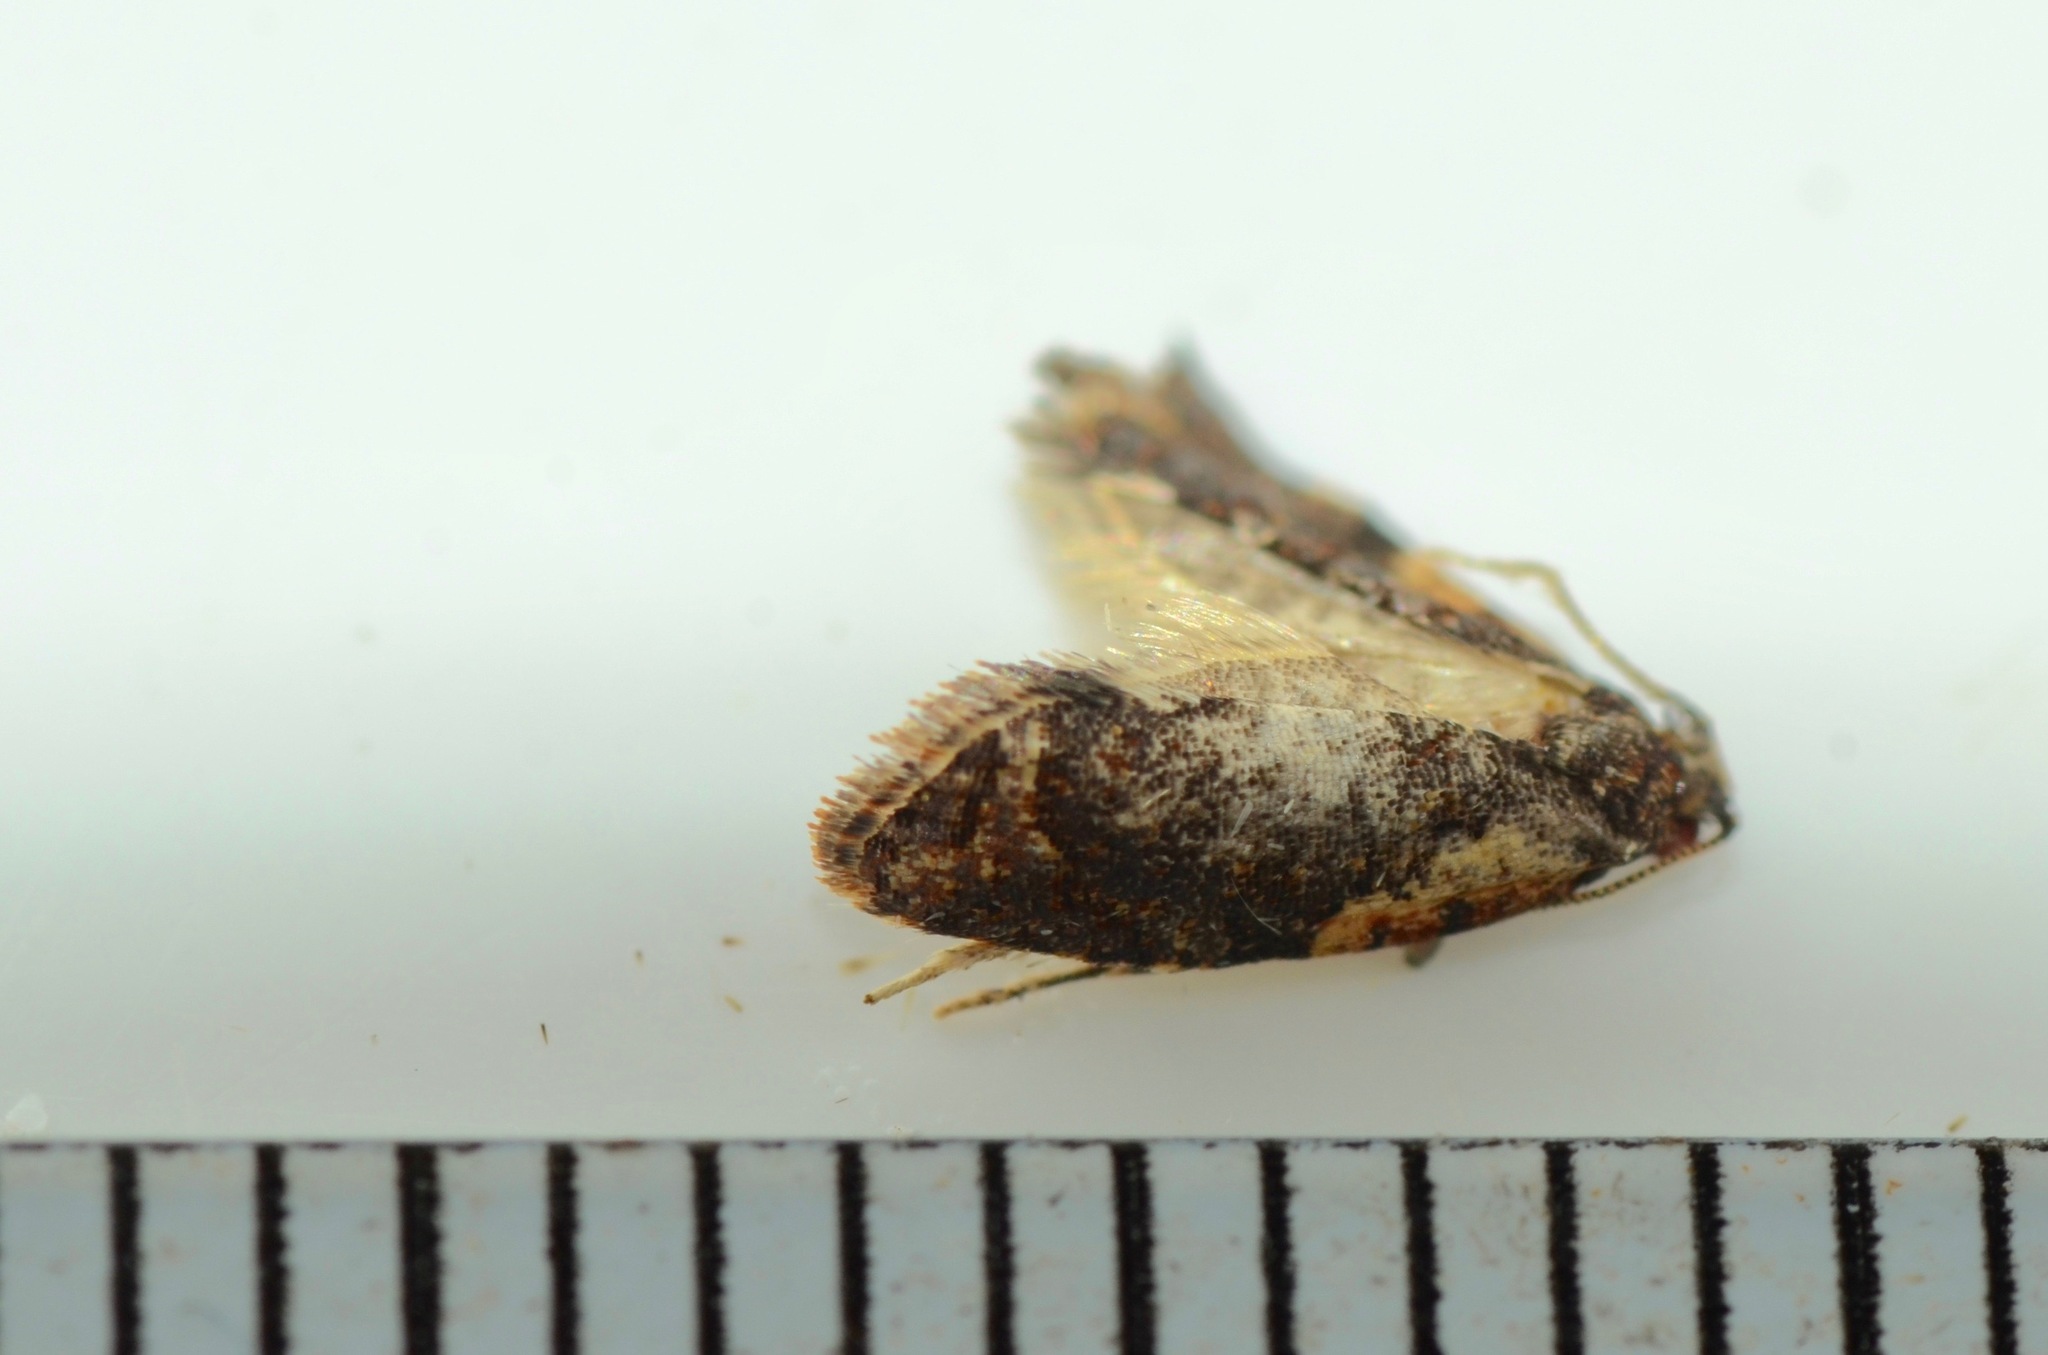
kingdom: Animalia
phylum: Arthropoda
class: Insecta
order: Lepidoptera
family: Tortricidae
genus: Capua
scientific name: Capua intractana
